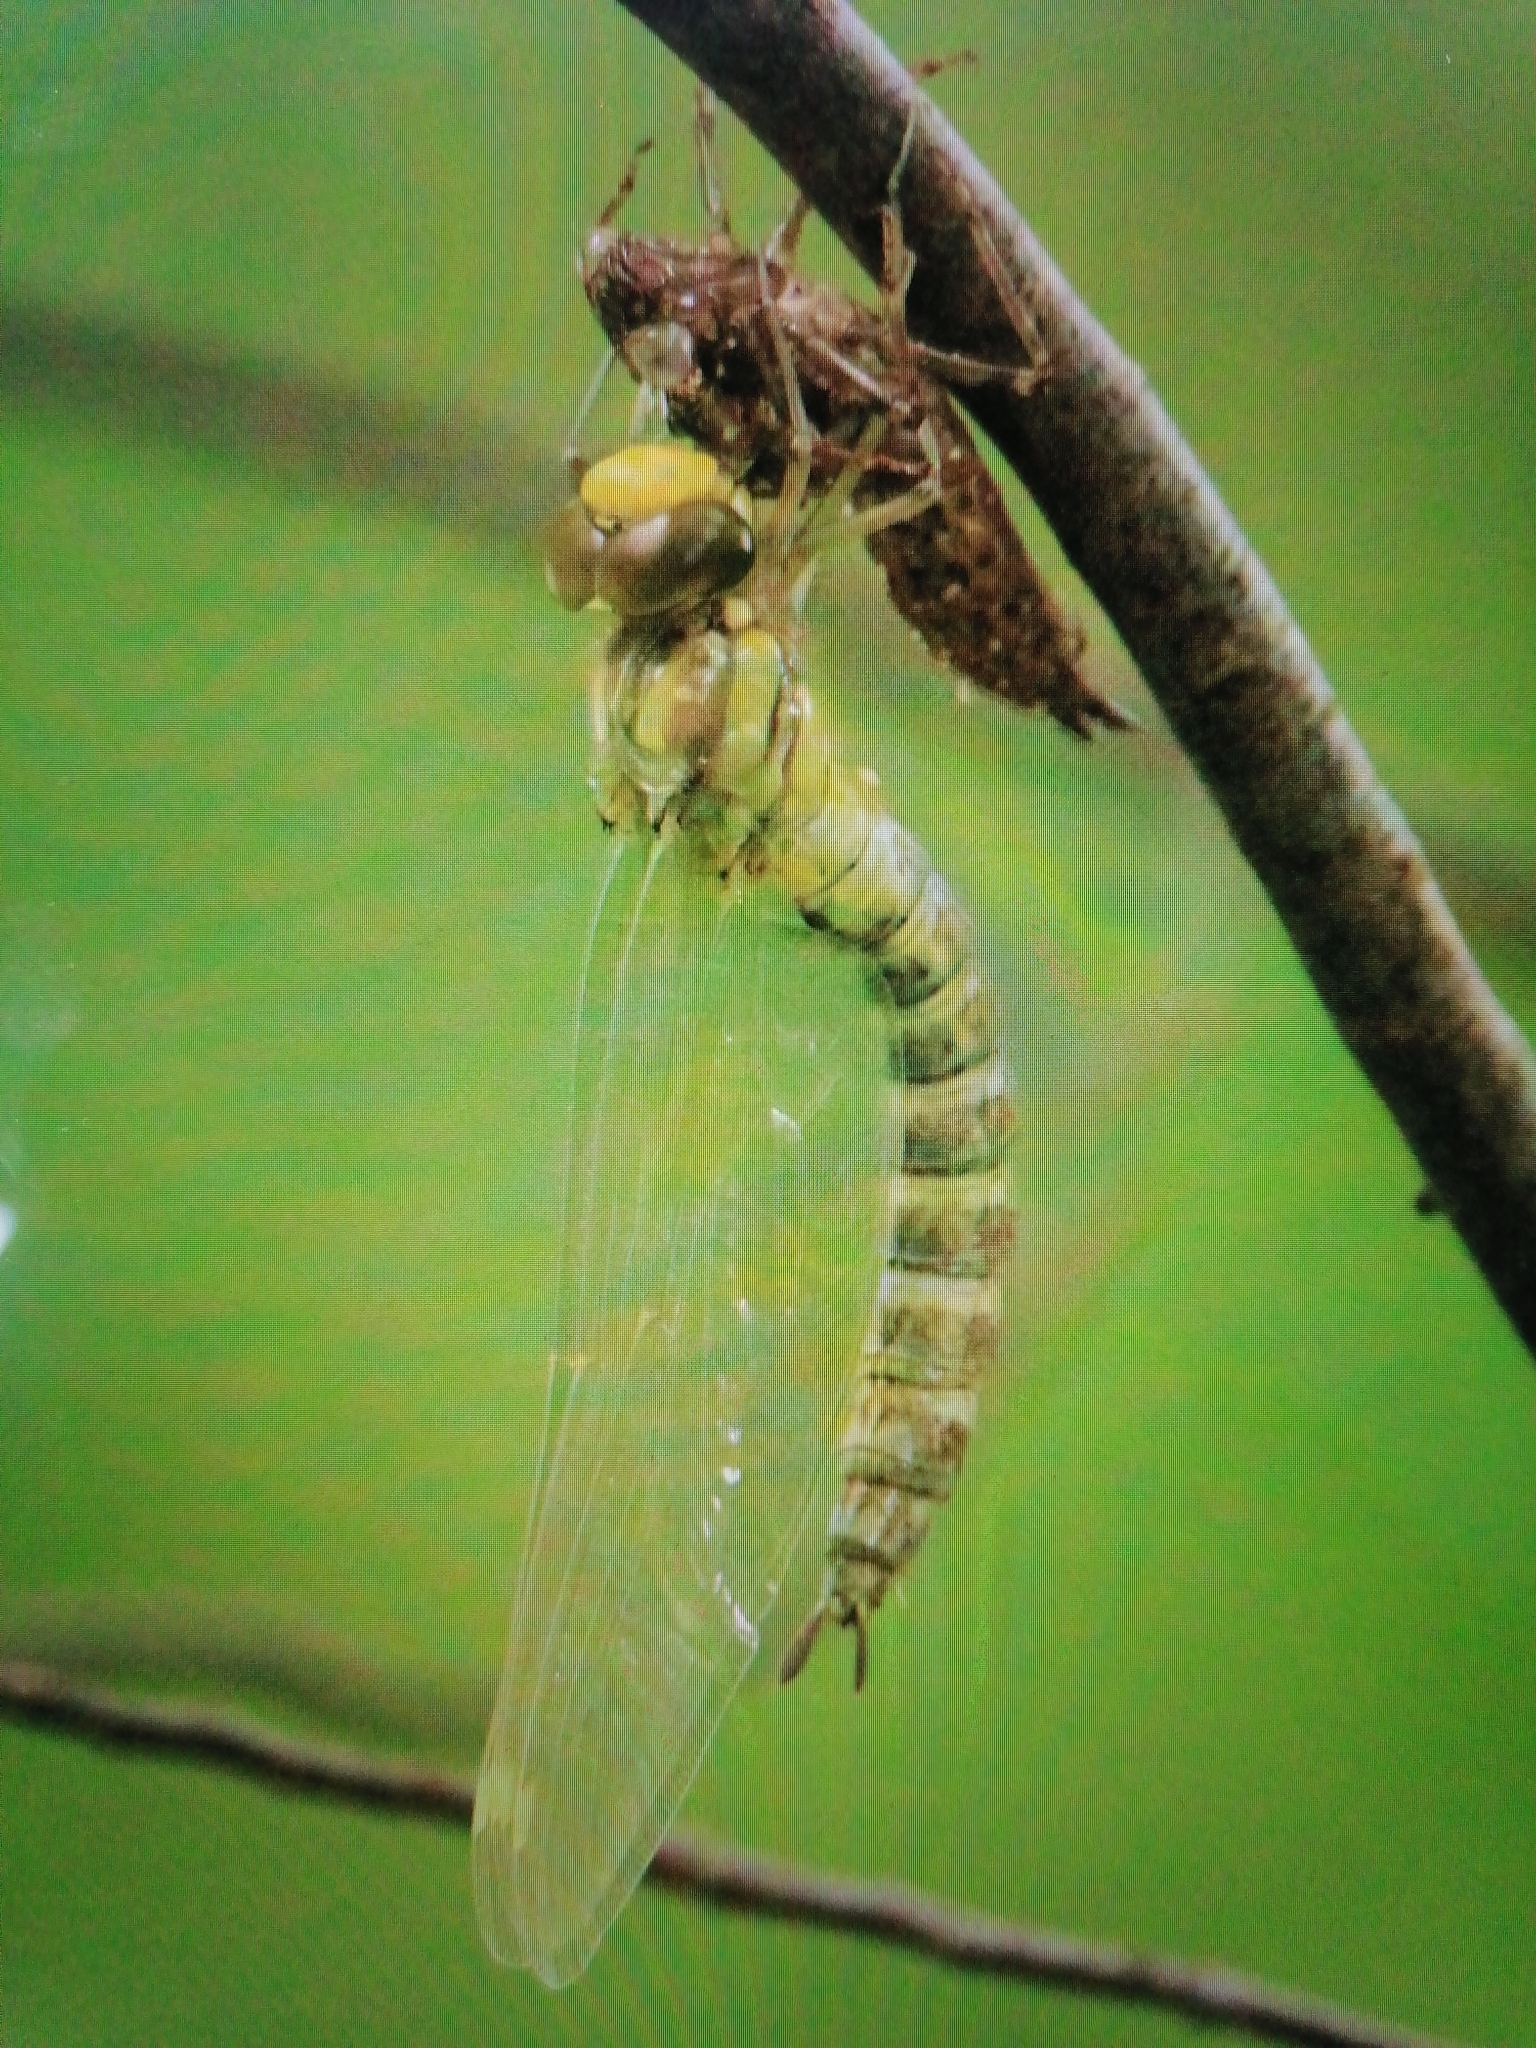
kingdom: Animalia
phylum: Arthropoda
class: Insecta
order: Odonata
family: Aeshnidae
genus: Aeshna
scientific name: Aeshna cyanea
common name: Southern hawker
